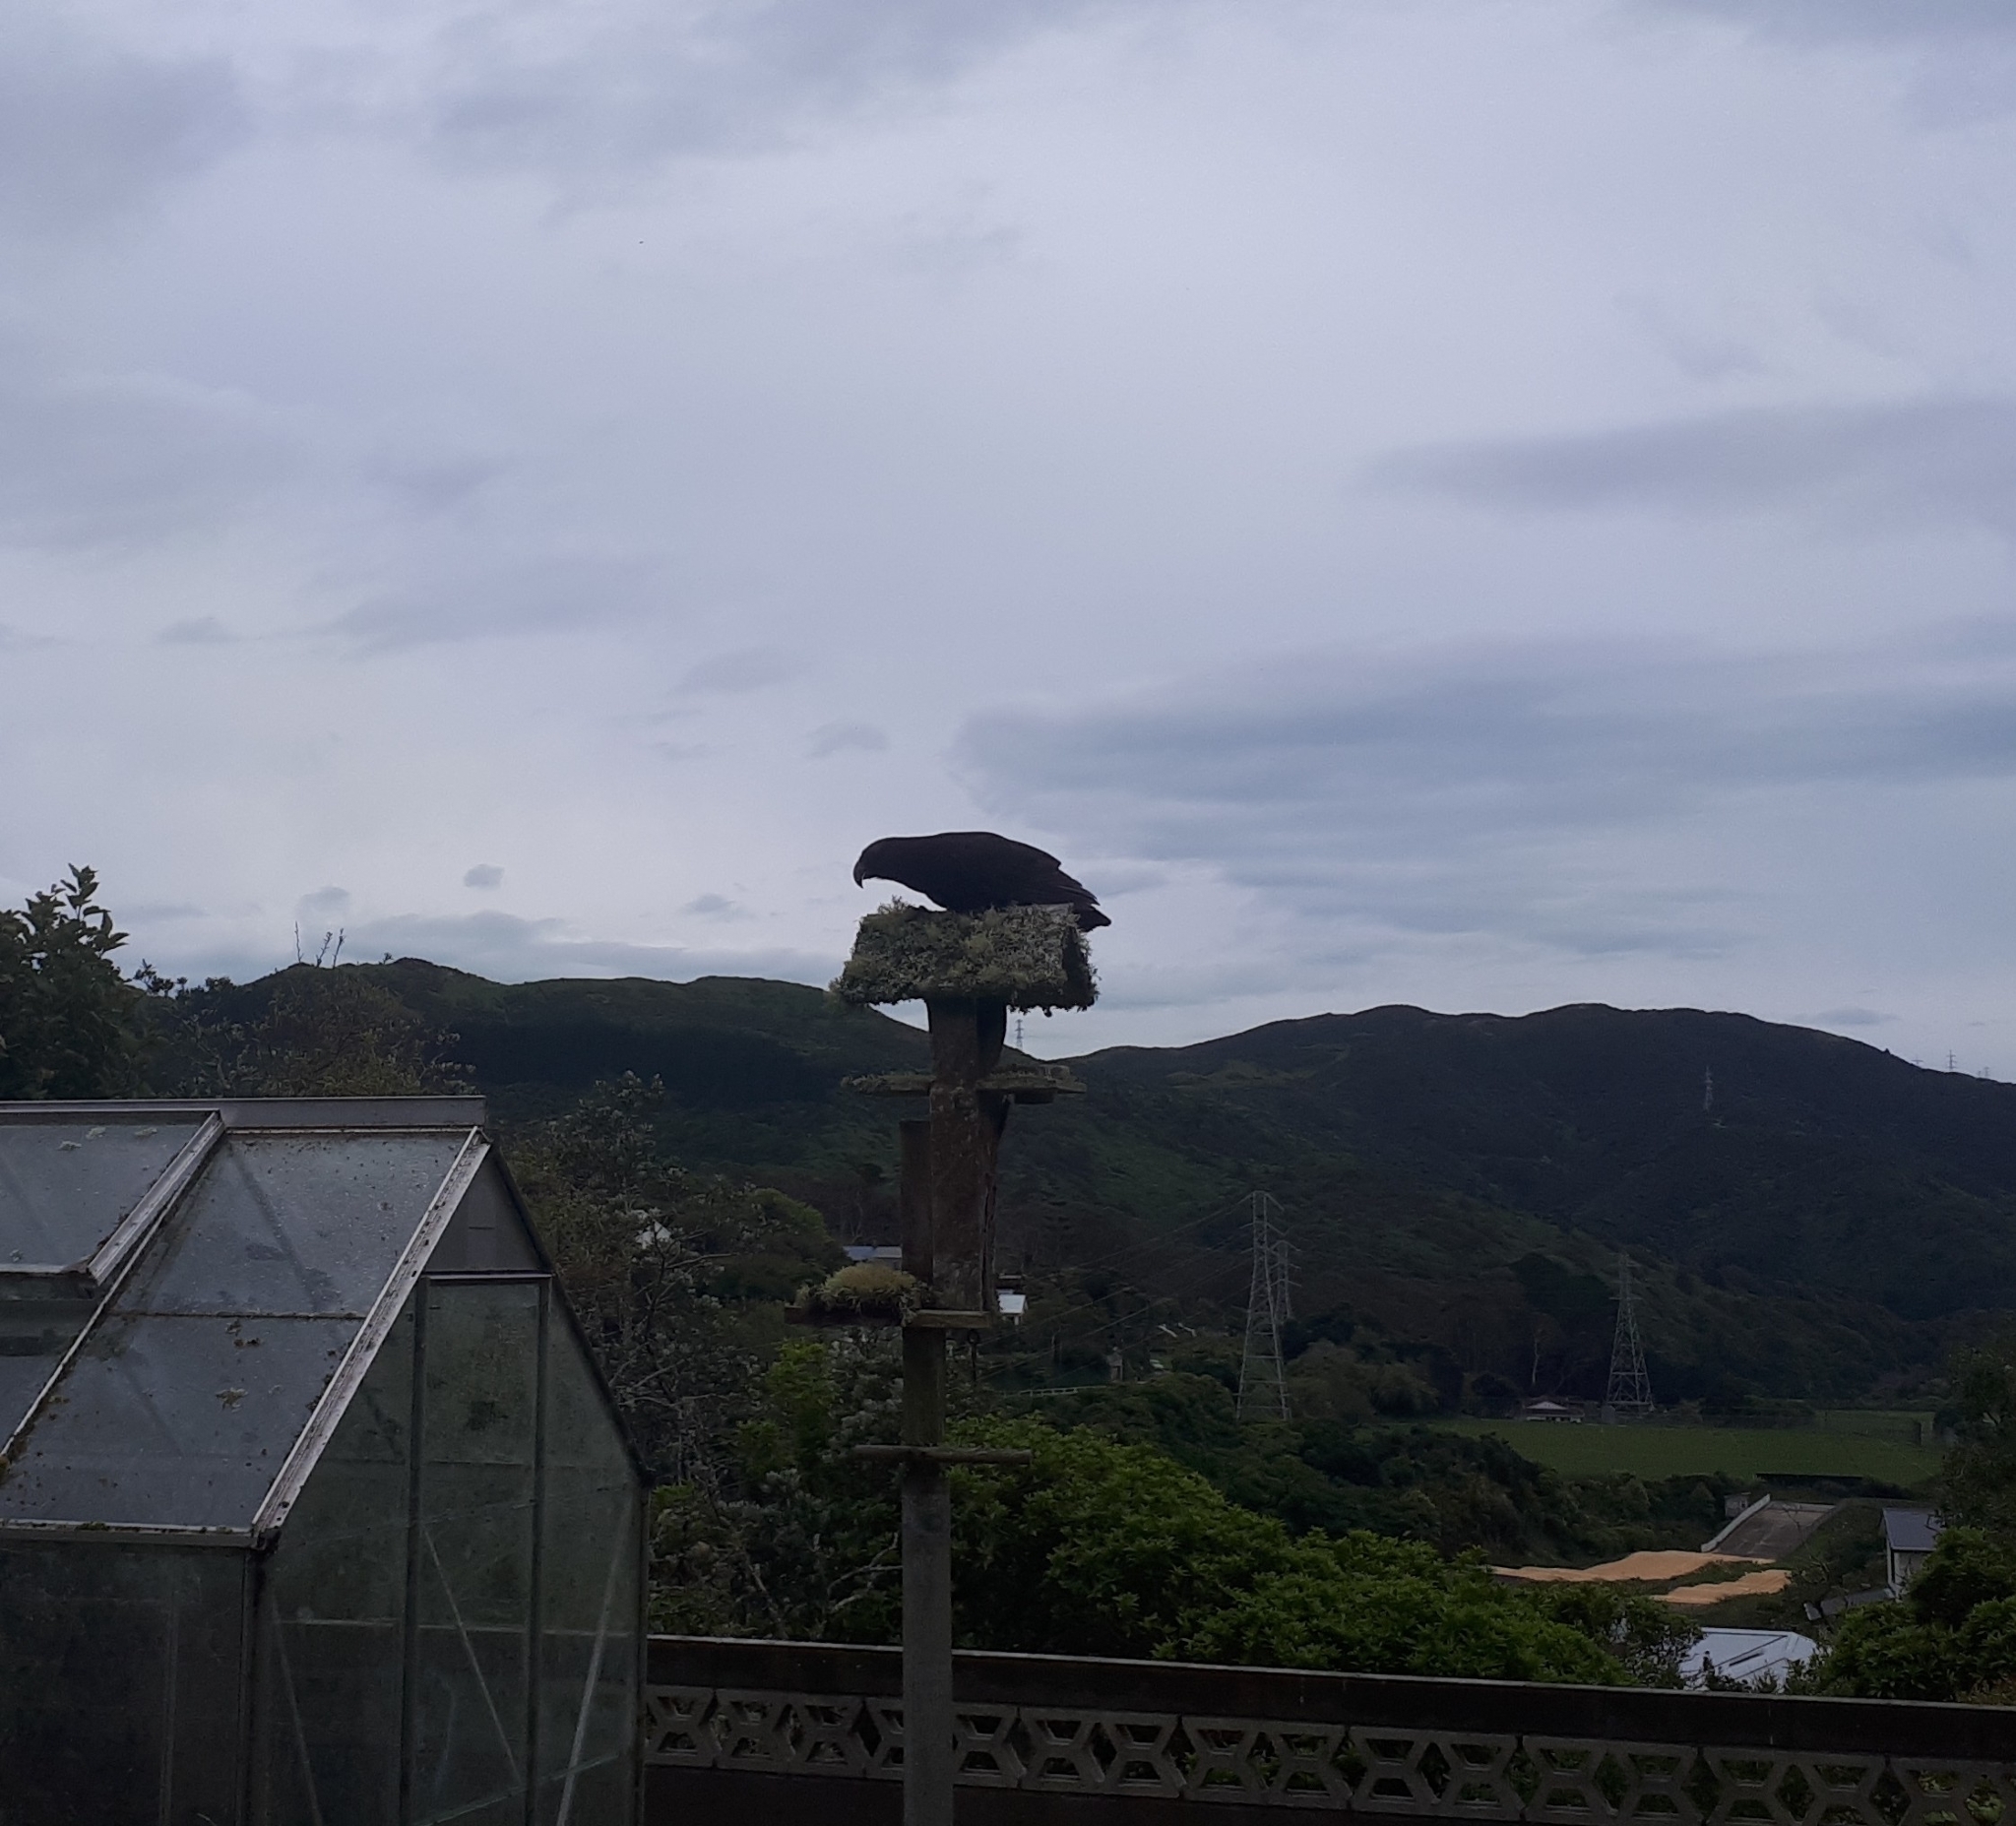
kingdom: Animalia
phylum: Chordata
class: Aves
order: Psittaciformes
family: Psittacidae
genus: Nestor
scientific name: Nestor meridionalis
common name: New zealand kaka
